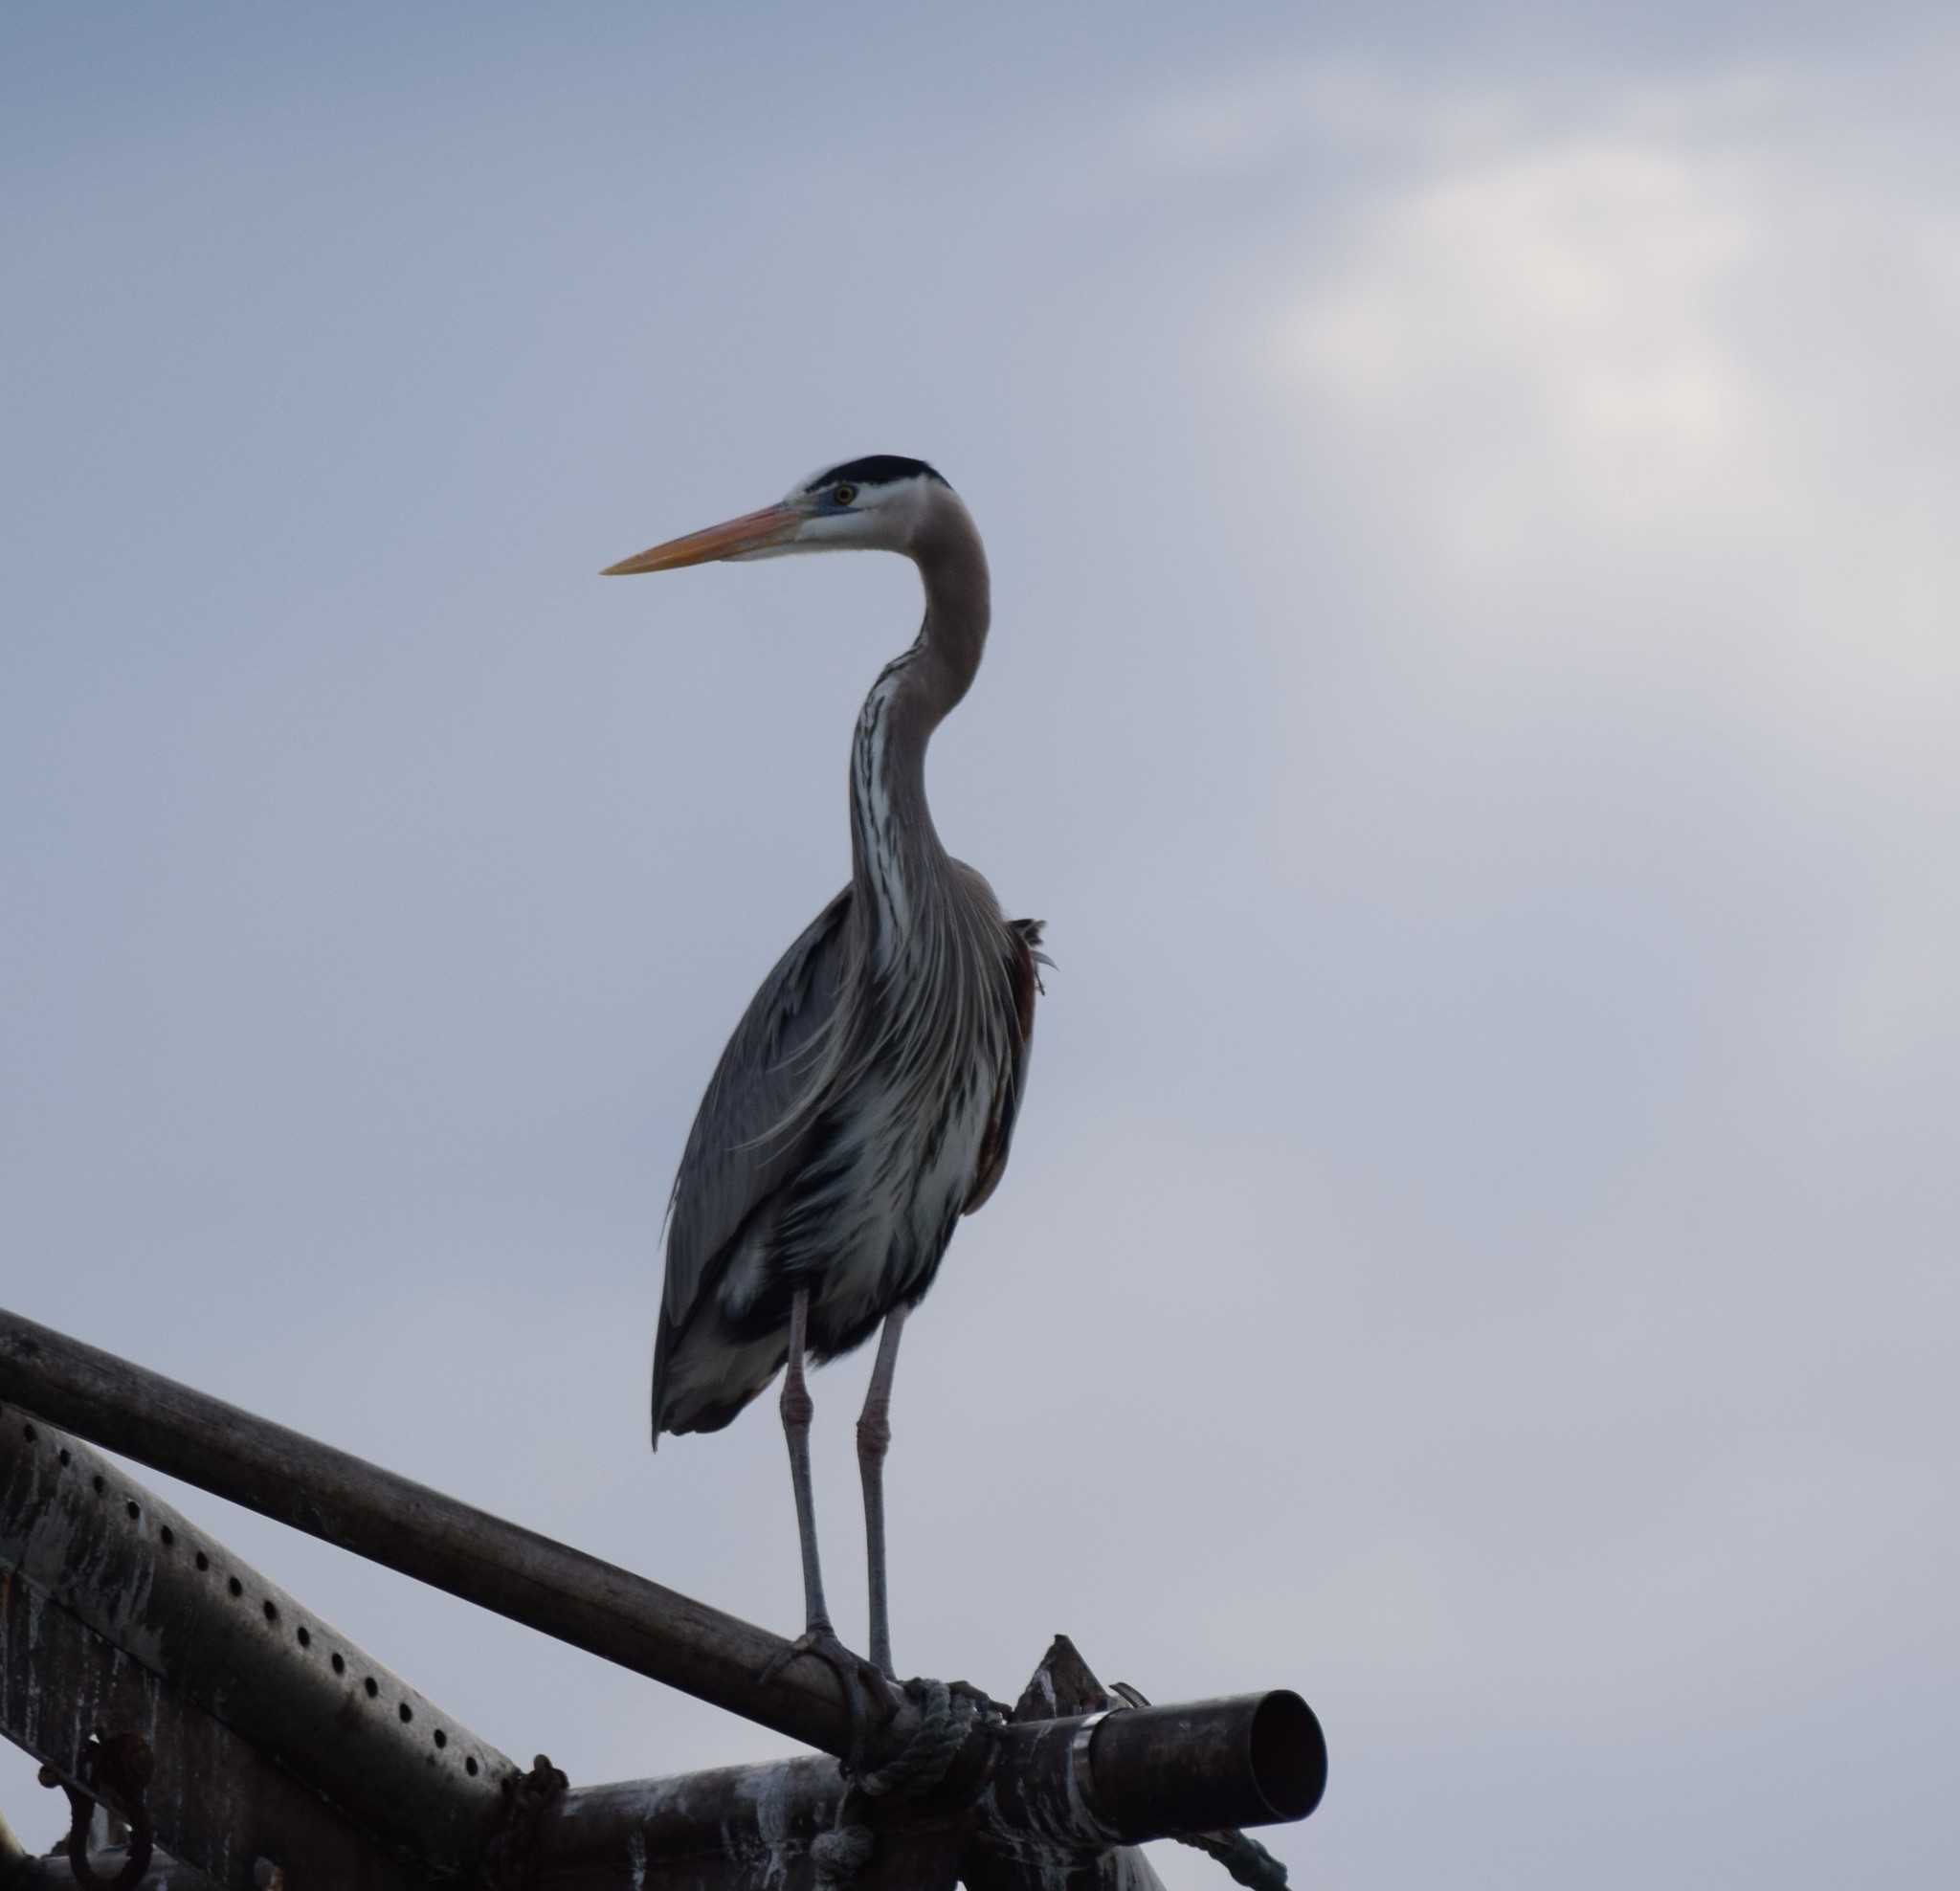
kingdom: Animalia
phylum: Chordata
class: Aves
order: Pelecaniformes
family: Ardeidae
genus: Ardea
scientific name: Ardea herodias
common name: Great blue heron
